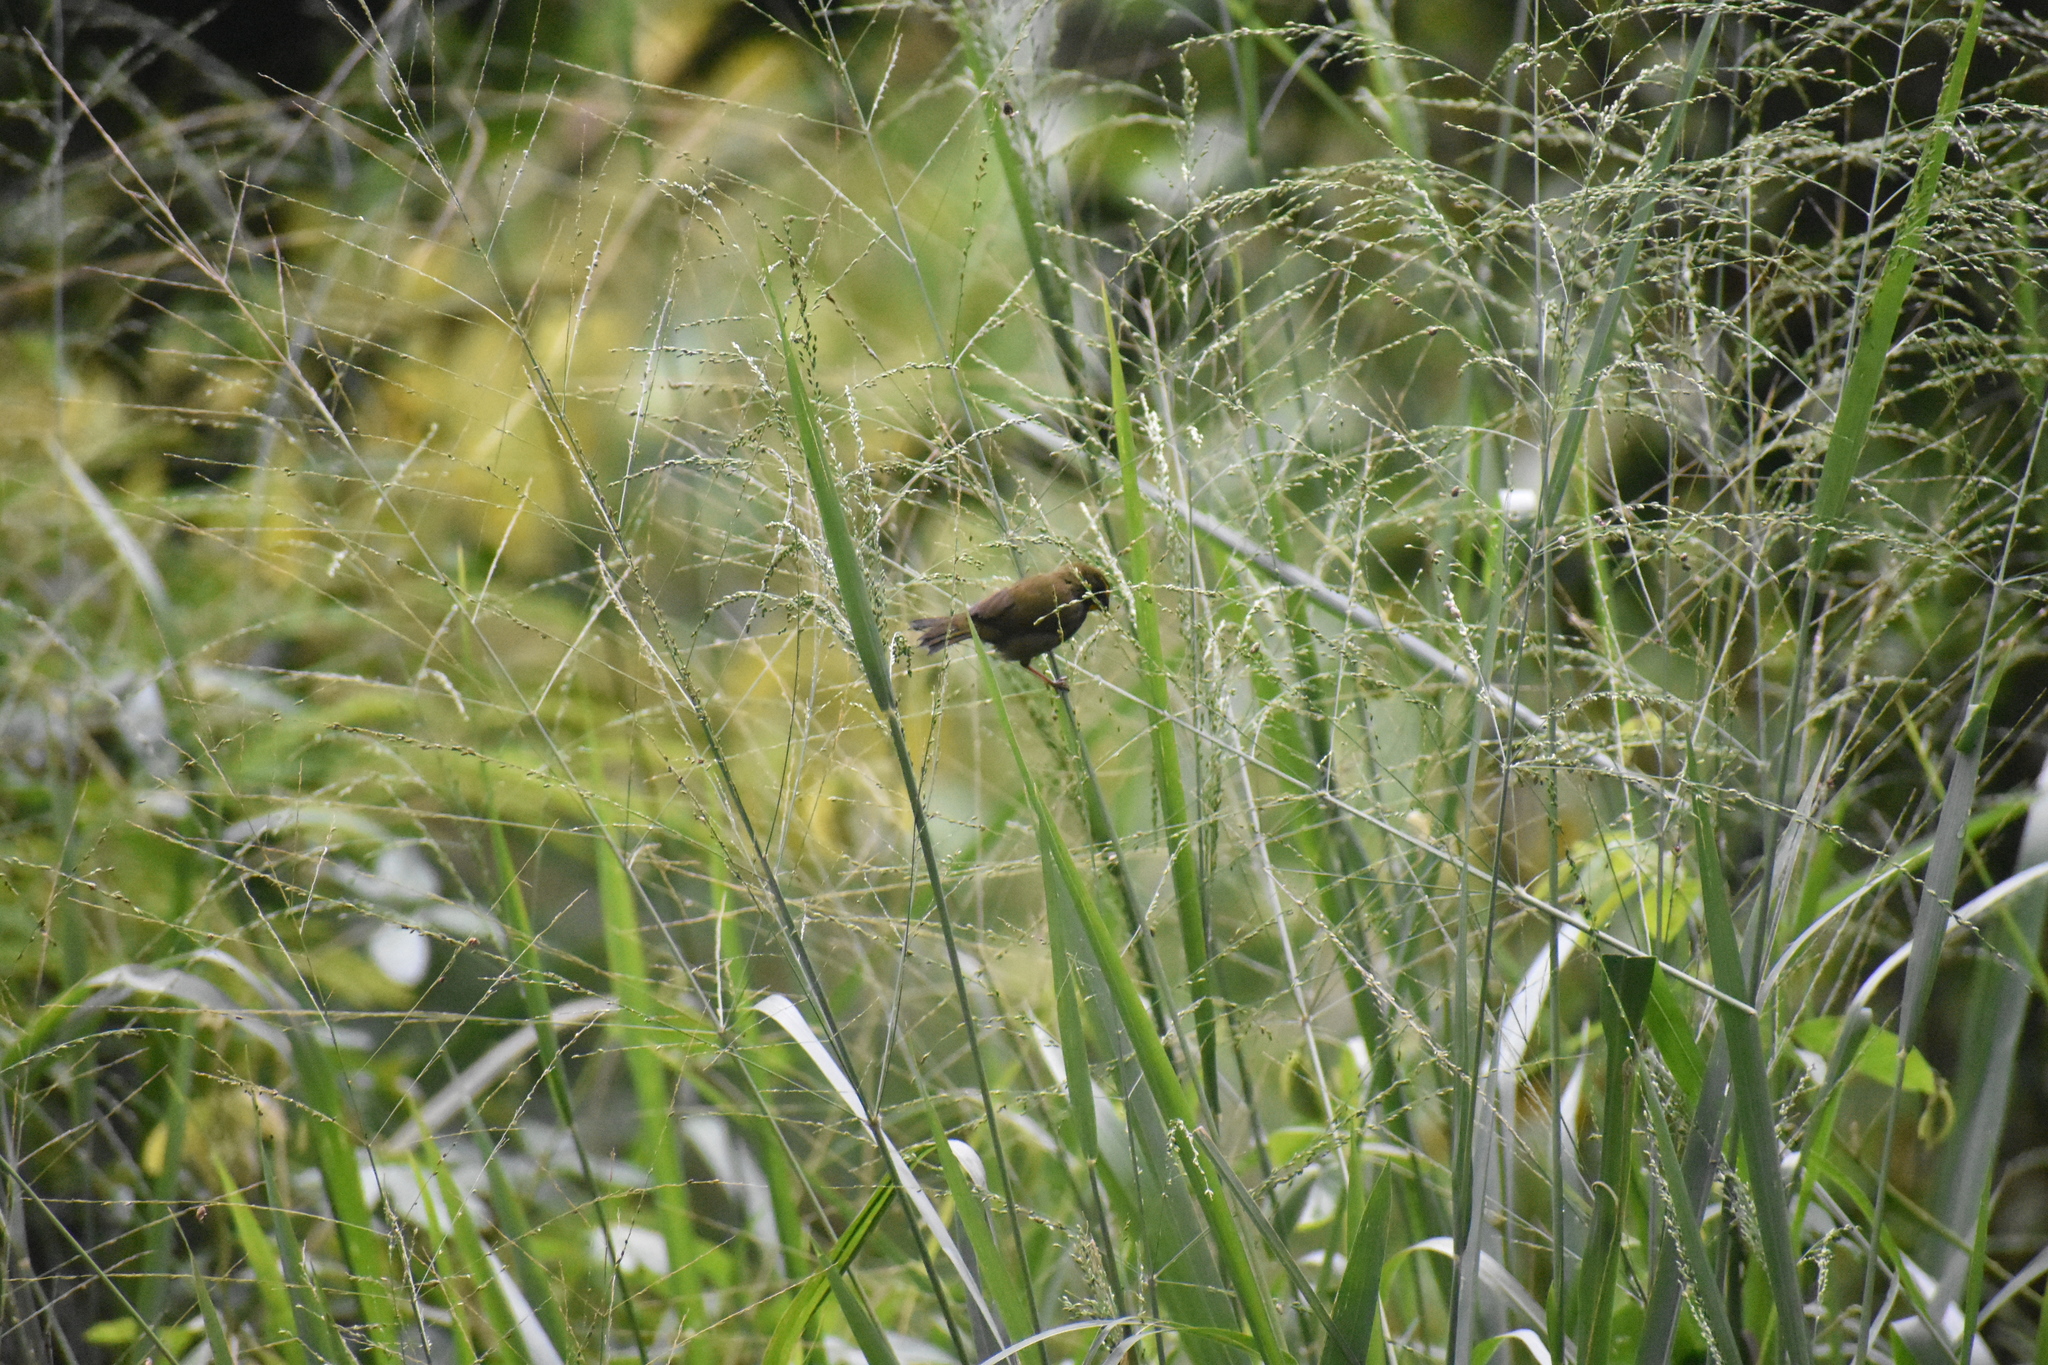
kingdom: Animalia
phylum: Chordata
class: Aves
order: Passeriformes
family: Thraupidae
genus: Tiaris
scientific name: Tiaris olivaceus
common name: Yellow-faced grassquit
